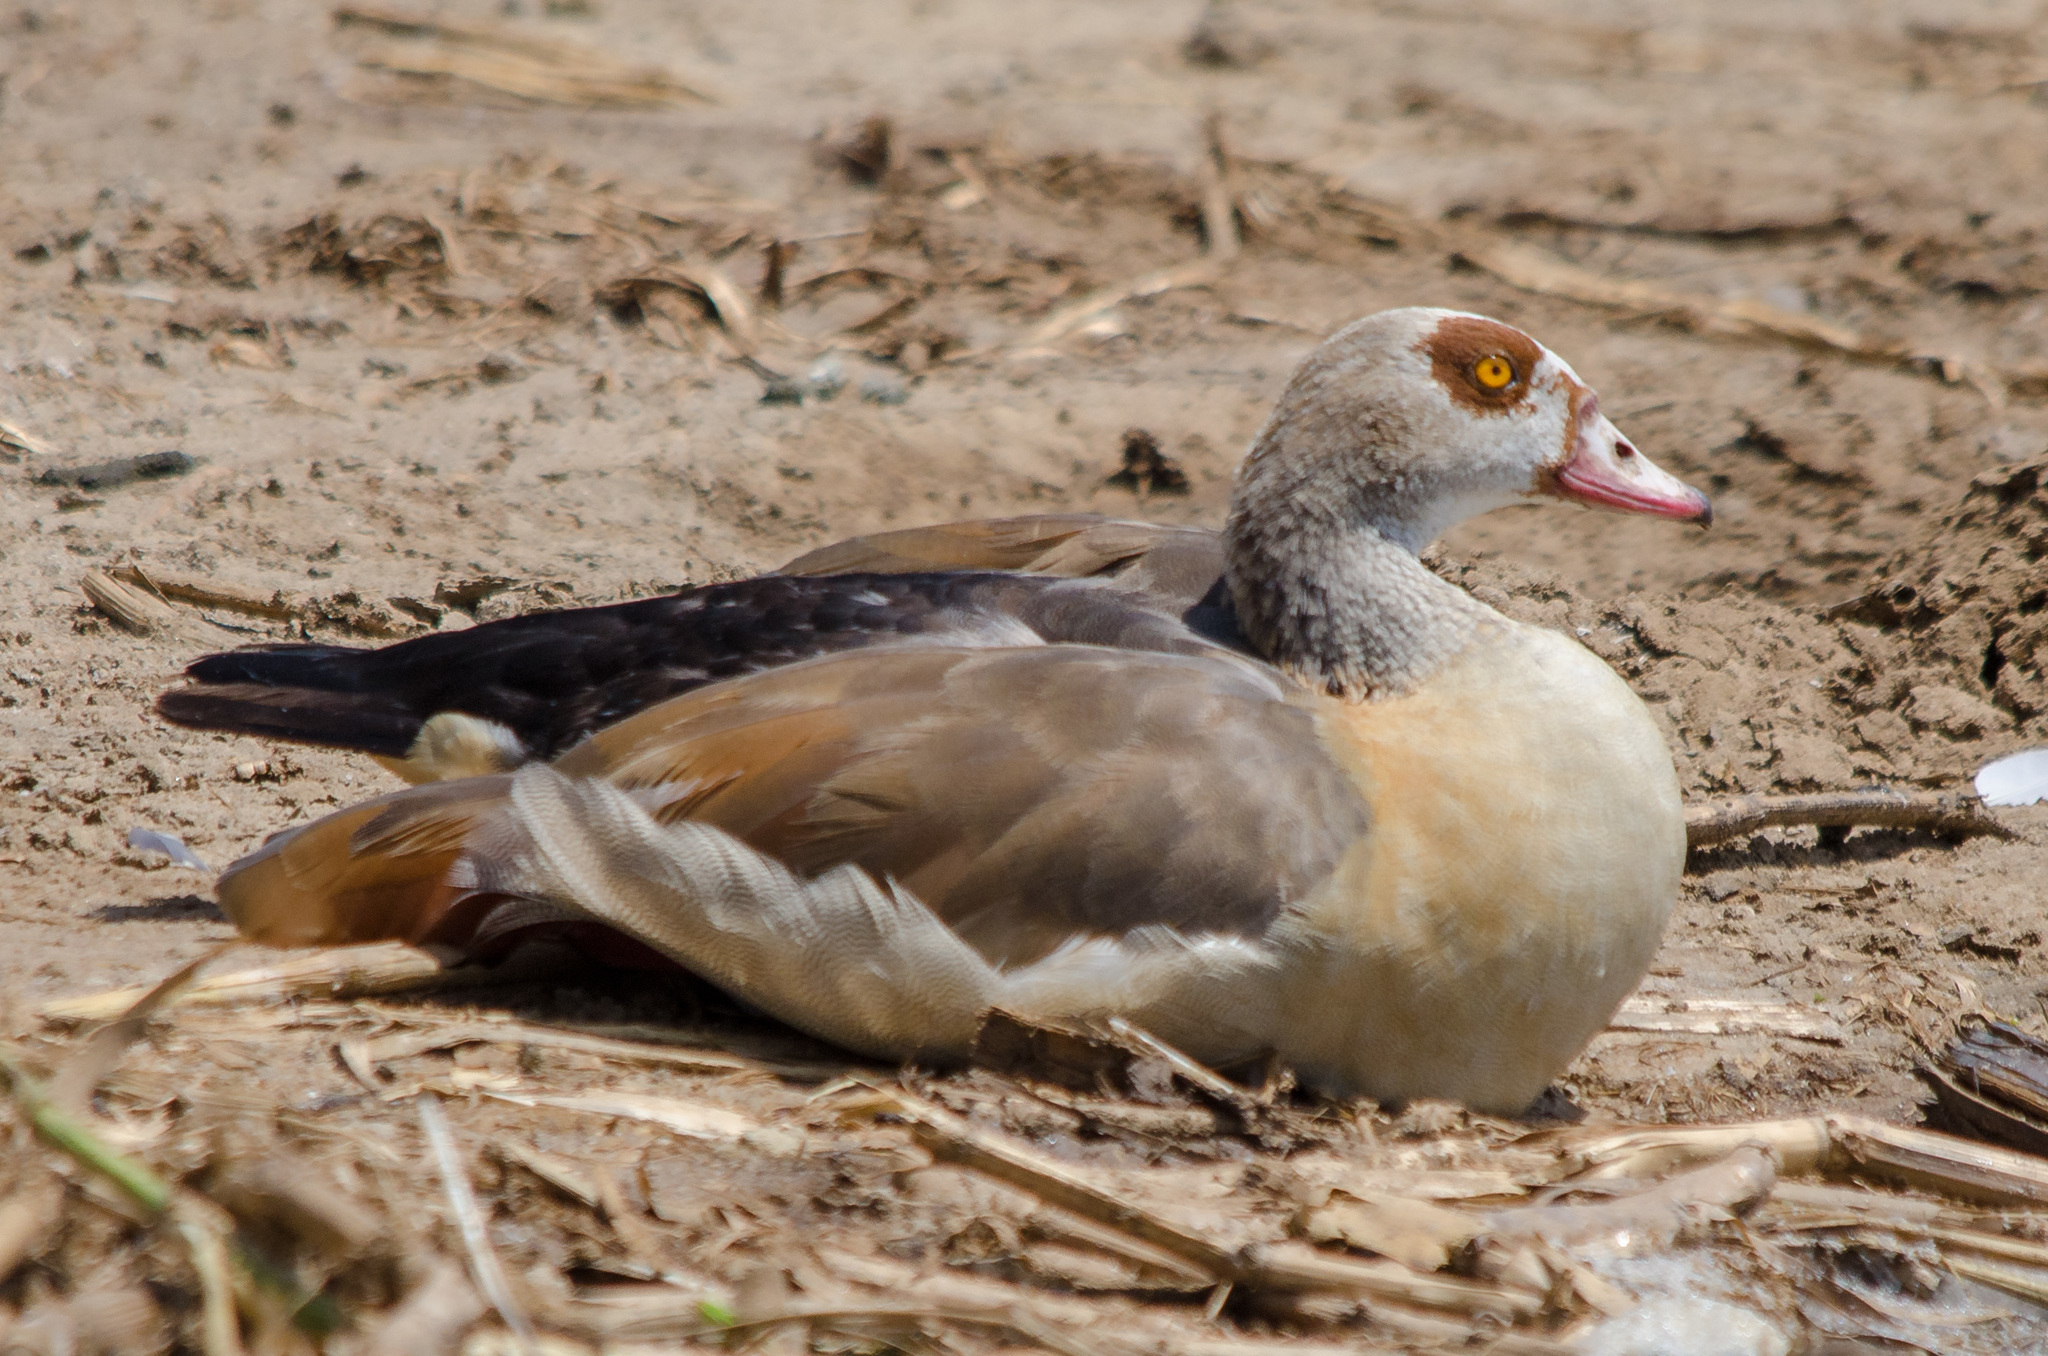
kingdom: Animalia
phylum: Chordata
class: Aves
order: Anseriformes
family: Anatidae
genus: Alopochen
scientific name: Alopochen aegyptiaca
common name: Egyptian goose
